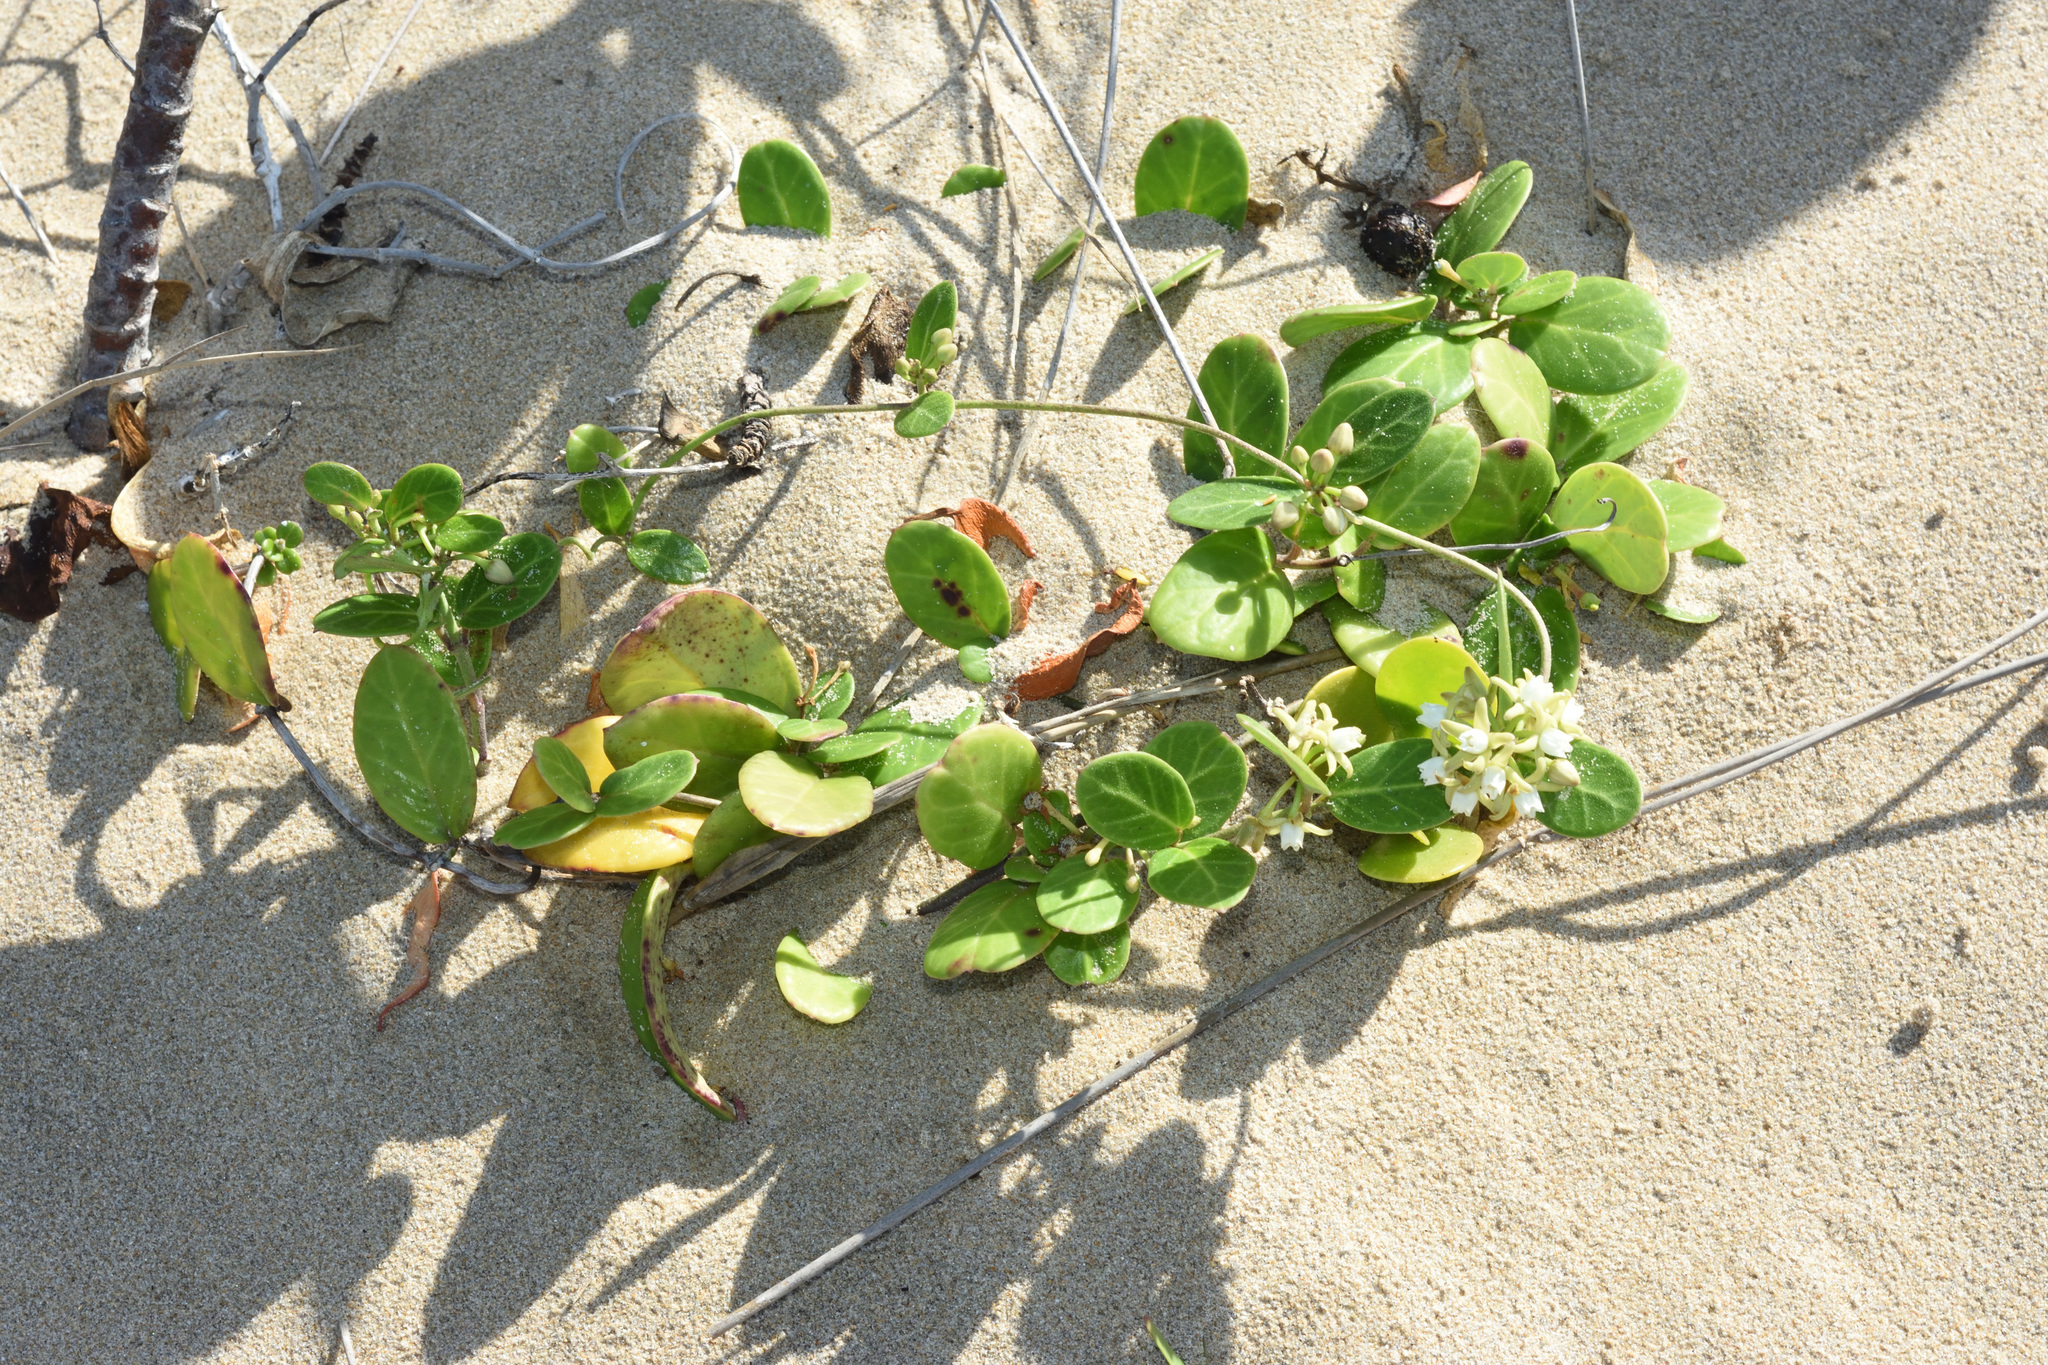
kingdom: Plantae
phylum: Tracheophyta
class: Magnoliopsida
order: Gentianales
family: Apocynaceae
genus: Cynanchum
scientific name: Cynanchum natalitium
